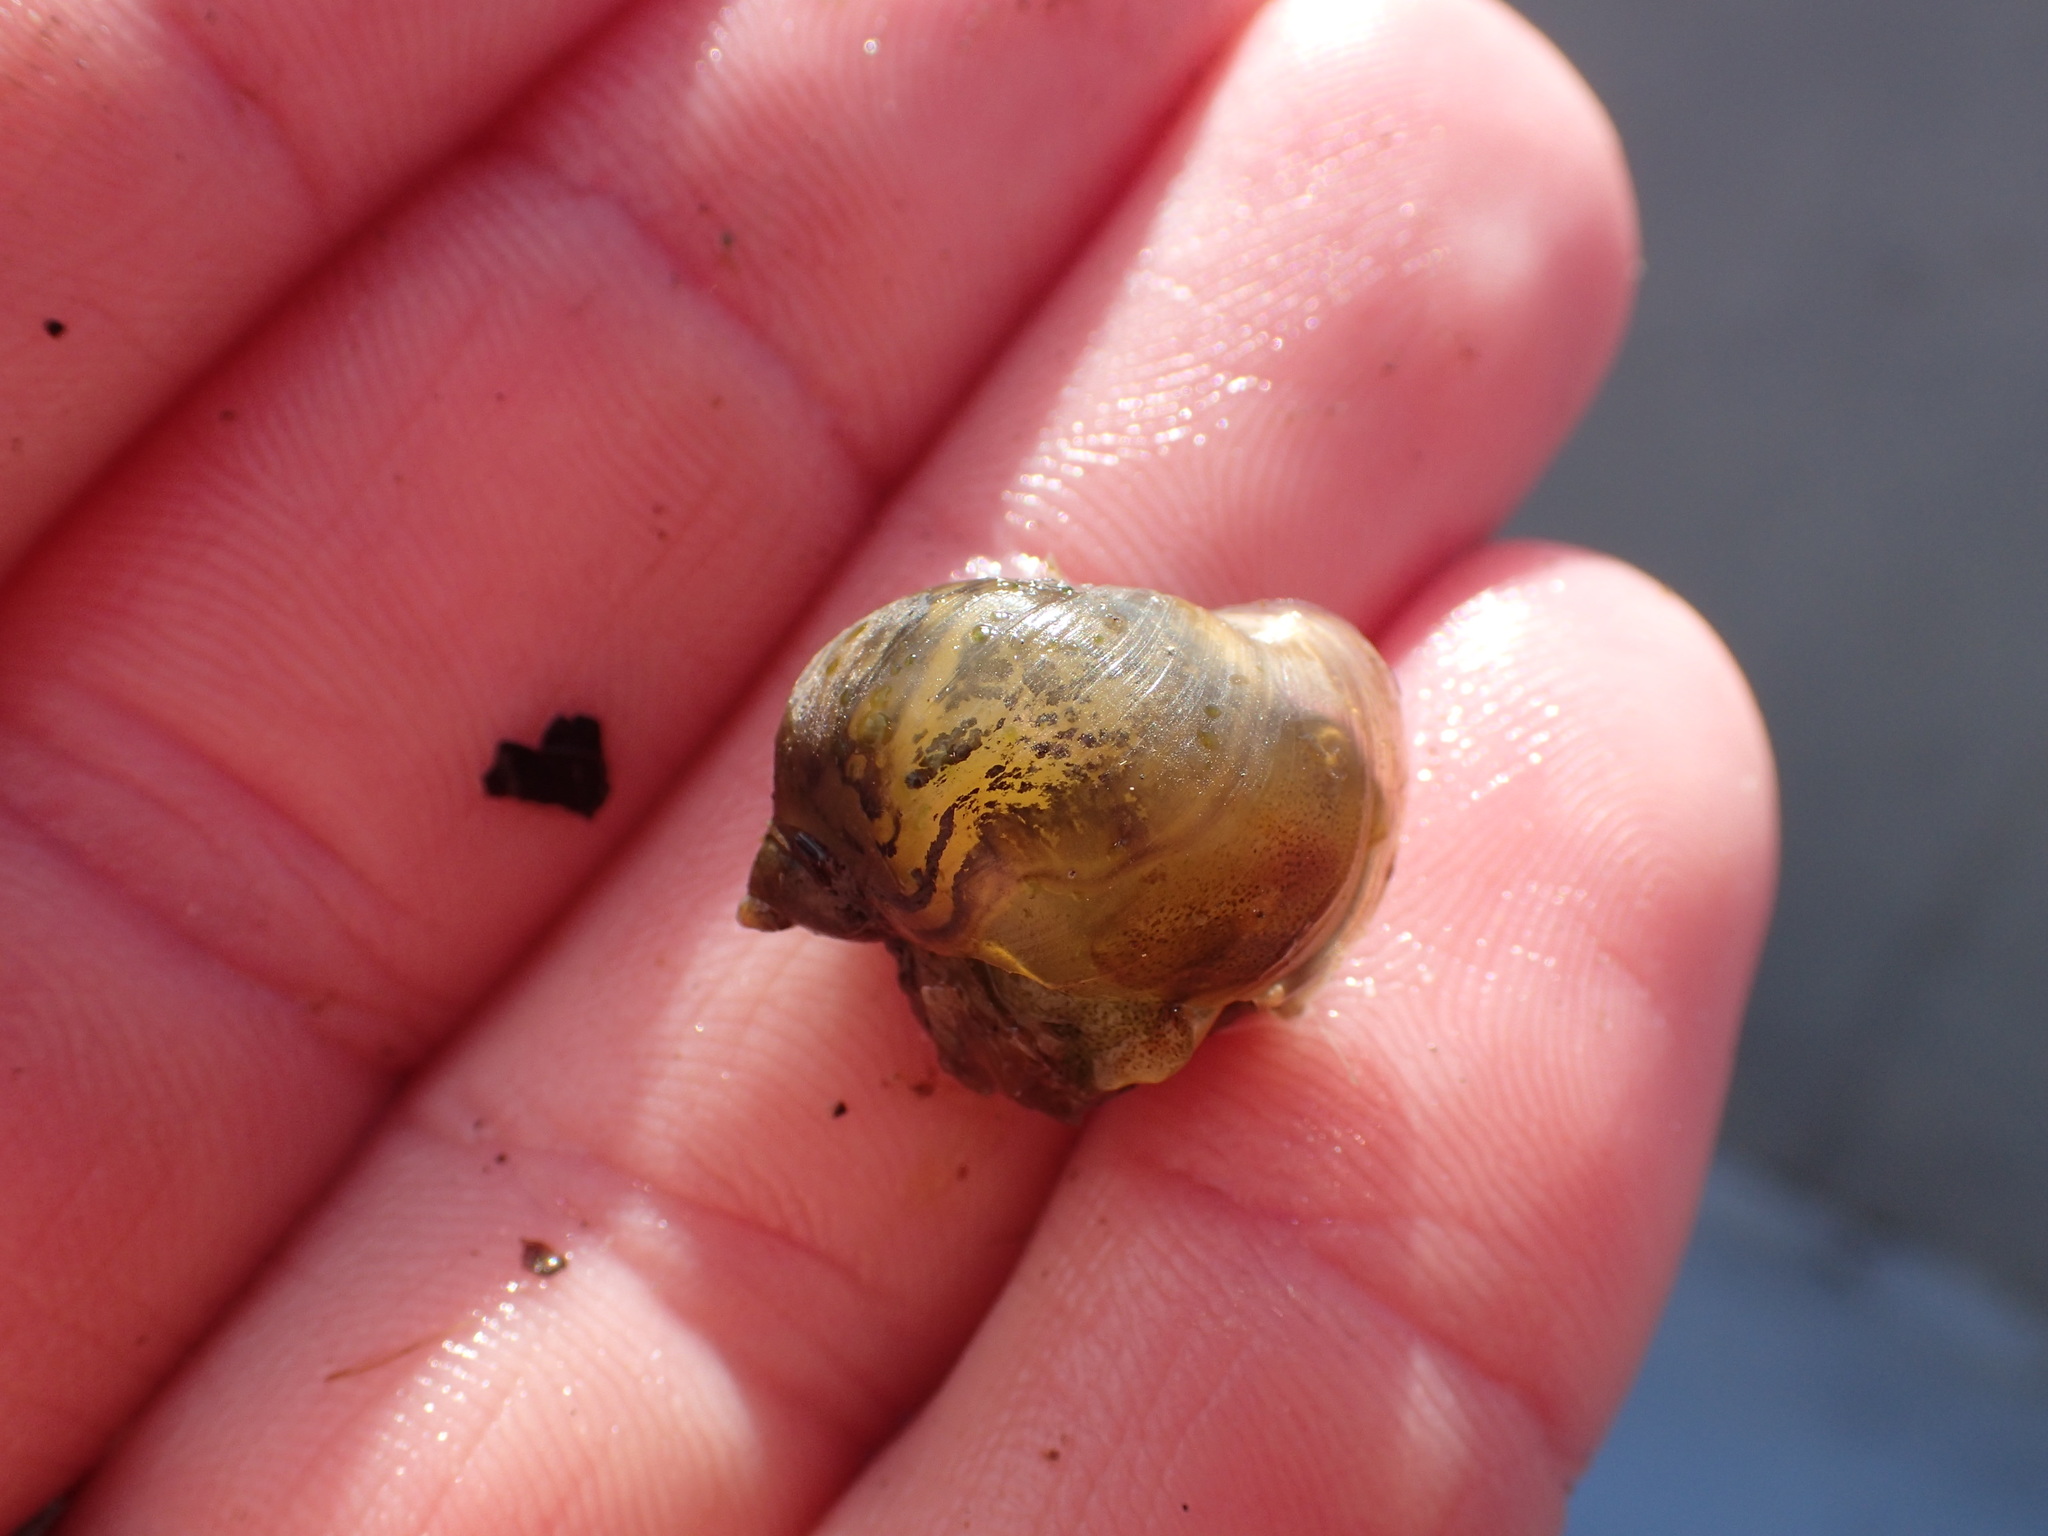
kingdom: Animalia
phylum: Mollusca
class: Gastropoda
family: Lymnaeidae
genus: Radix
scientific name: Radix auricularia
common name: Ear pond snail
